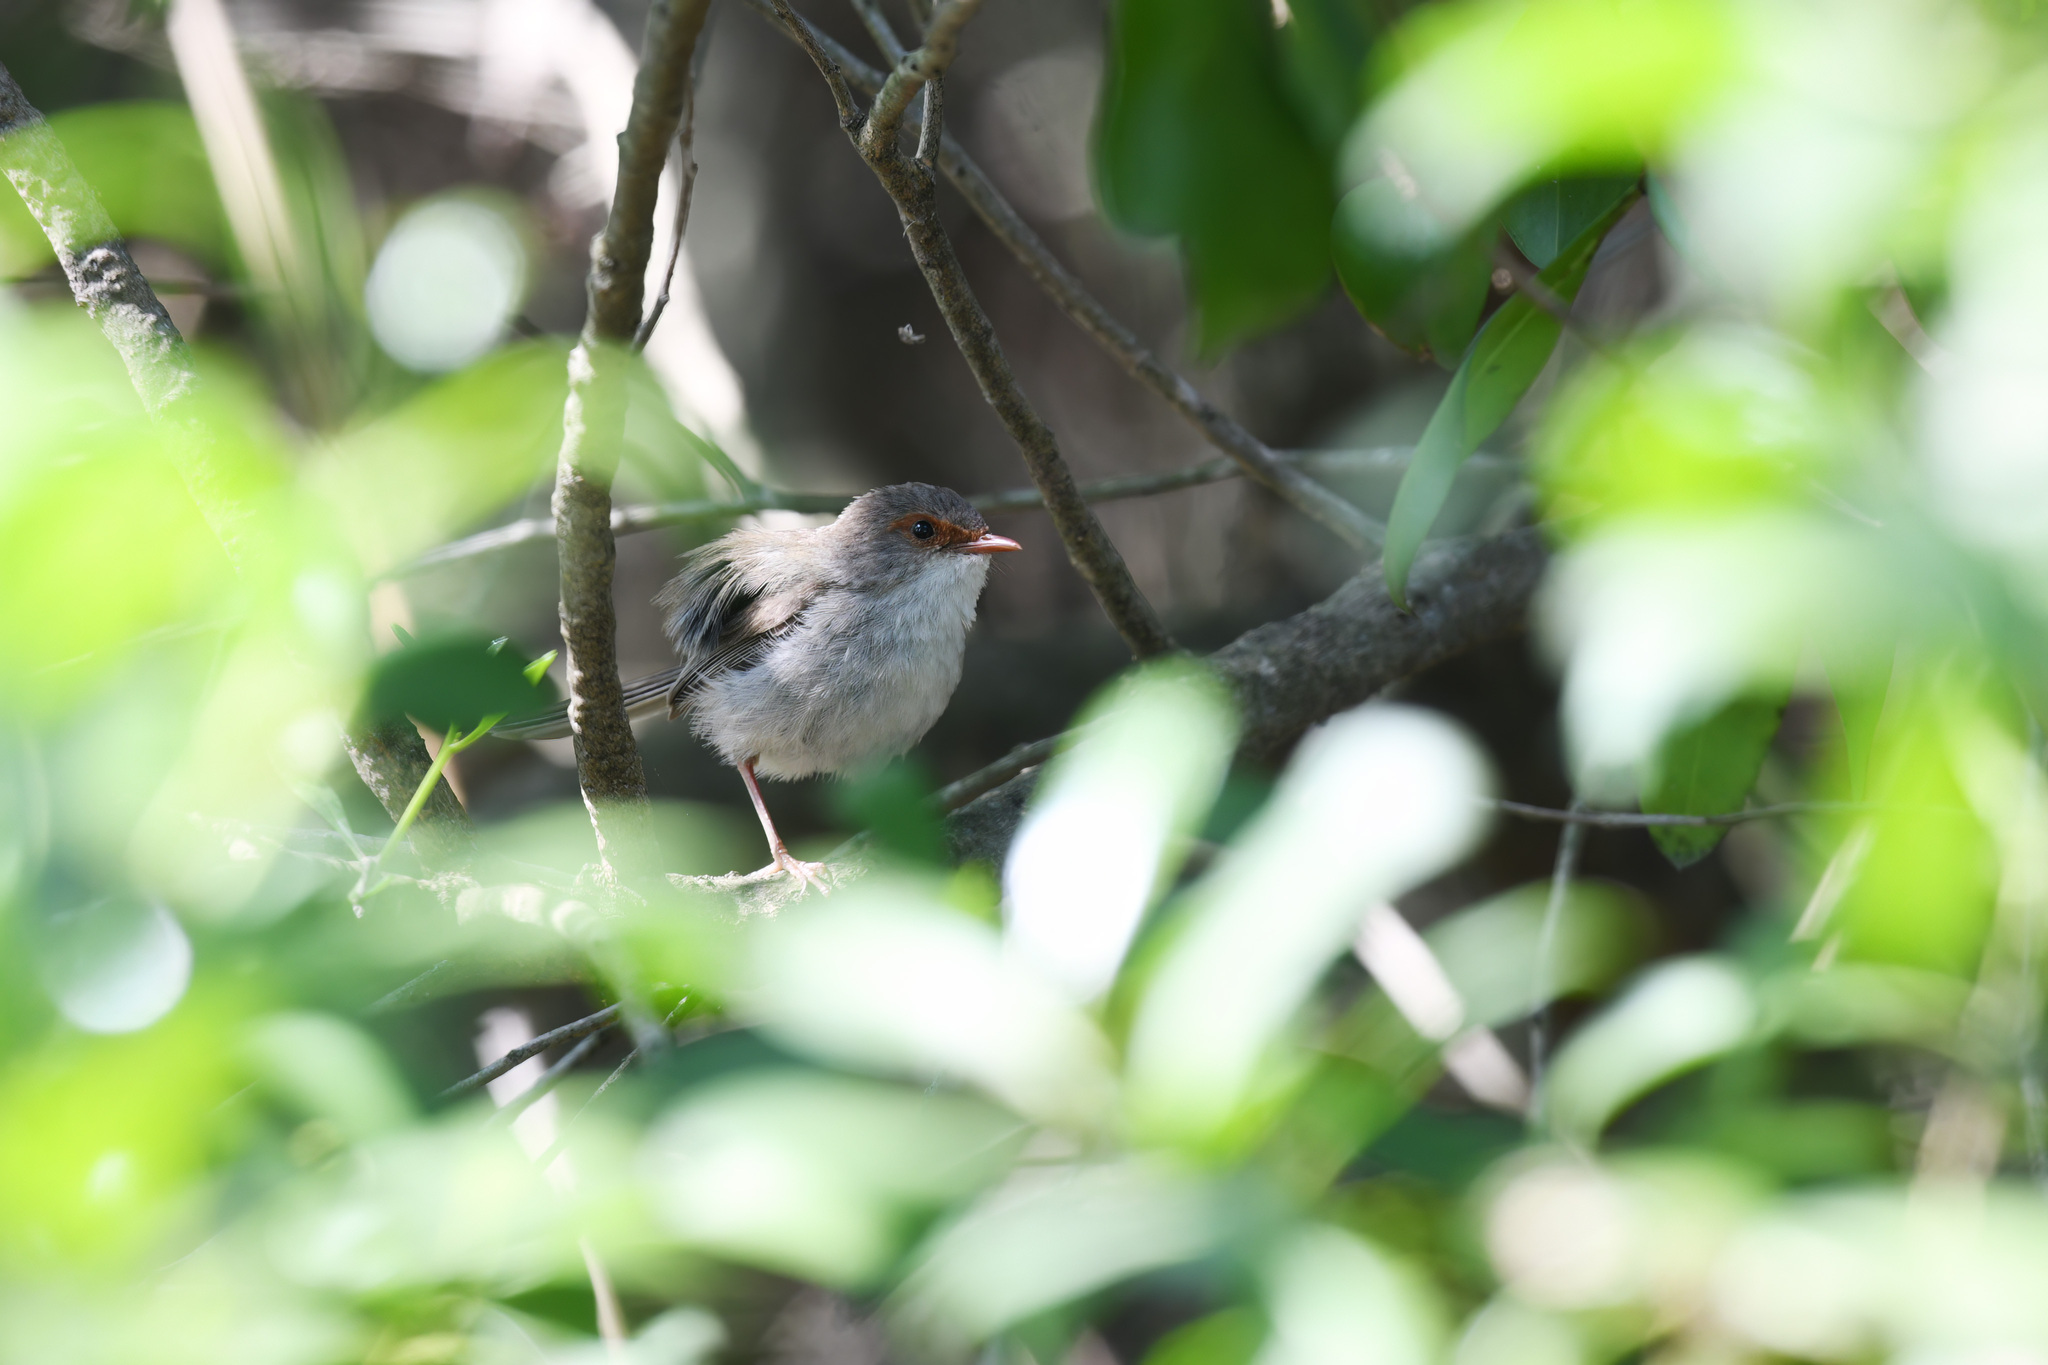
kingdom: Animalia
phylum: Chordata
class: Aves
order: Passeriformes
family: Maluridae
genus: Malurus
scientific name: Malurus cyaneus
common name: Superb fairywren
